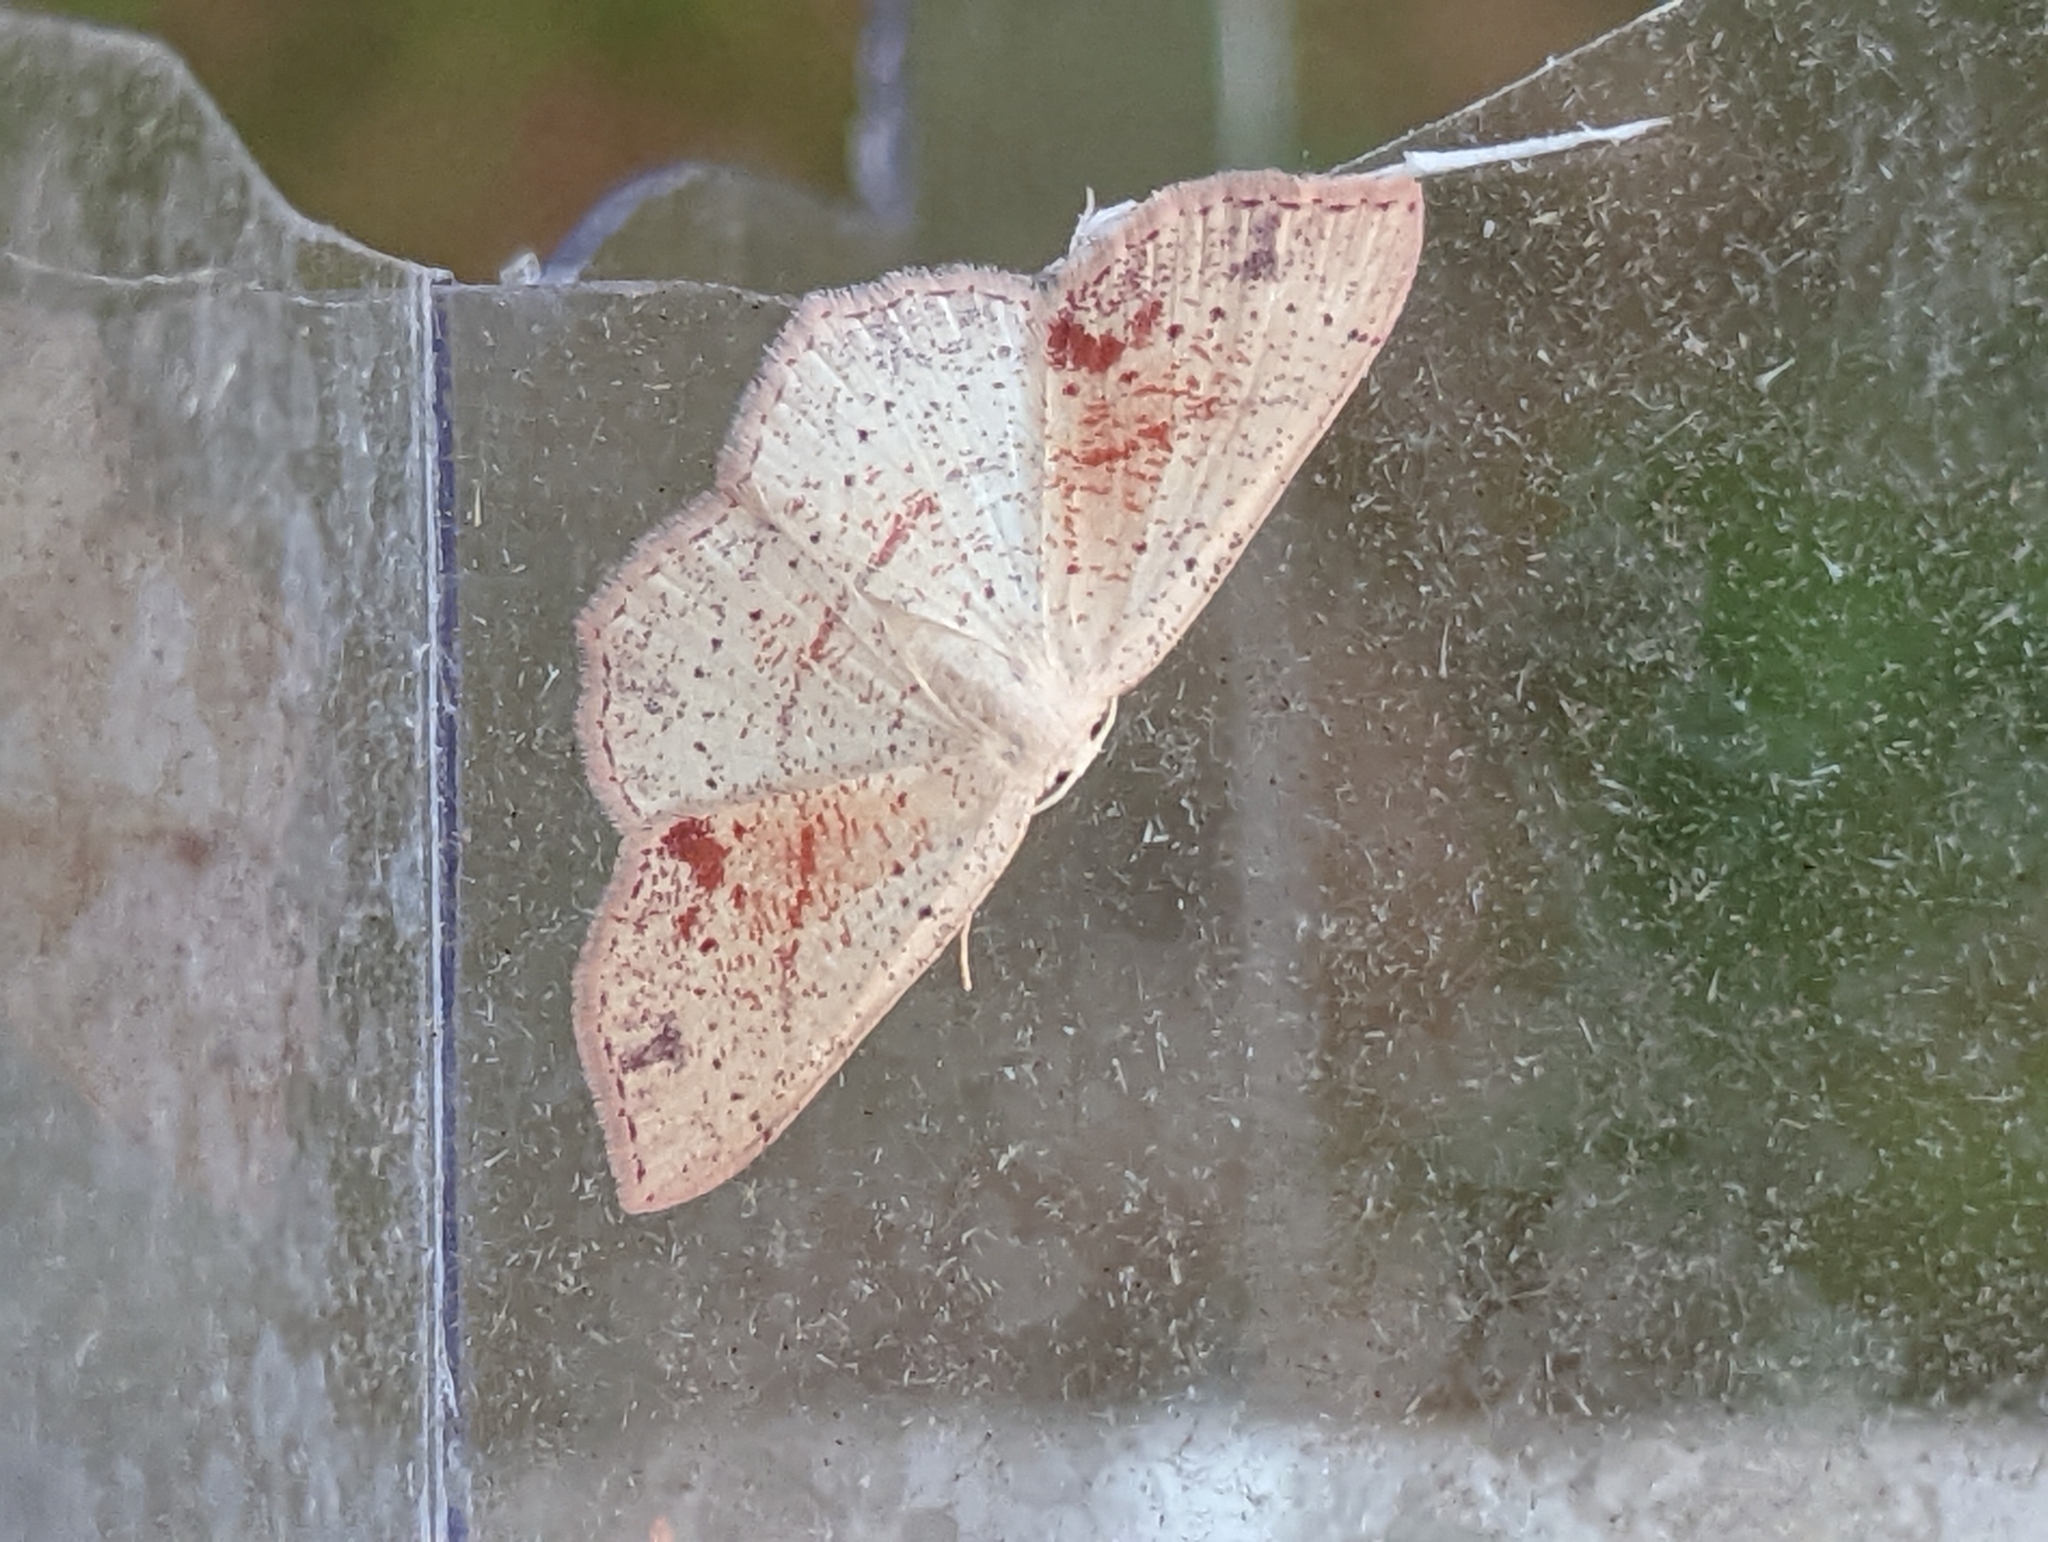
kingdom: Animalia
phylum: Arthropoda
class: Insecta
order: Lepidoptera
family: Geometridae
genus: Cyclophora
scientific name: Cyclophora punctaria
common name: Maiden's blush
